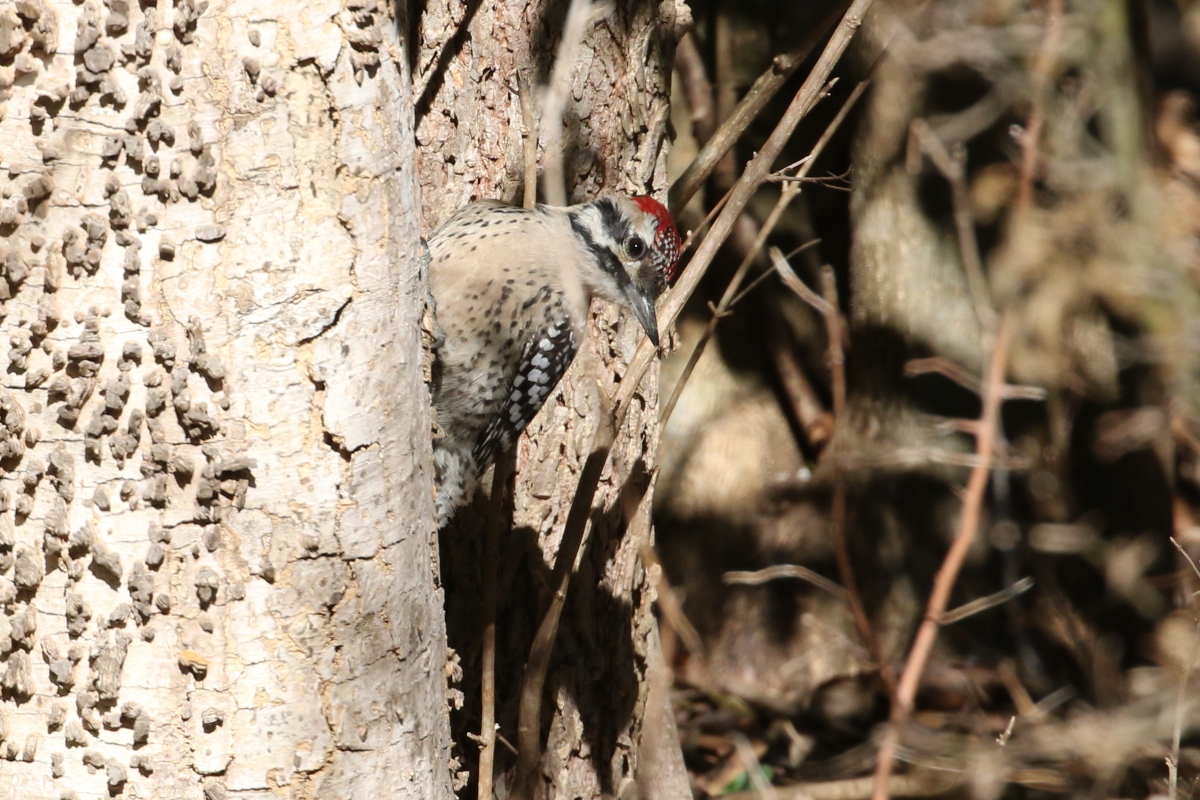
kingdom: Animalia
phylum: Chordata
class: Aves
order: Piciformes
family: Picidae
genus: Dryobates
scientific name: Dryobates scalaris
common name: Ladder-backed woodpecker
